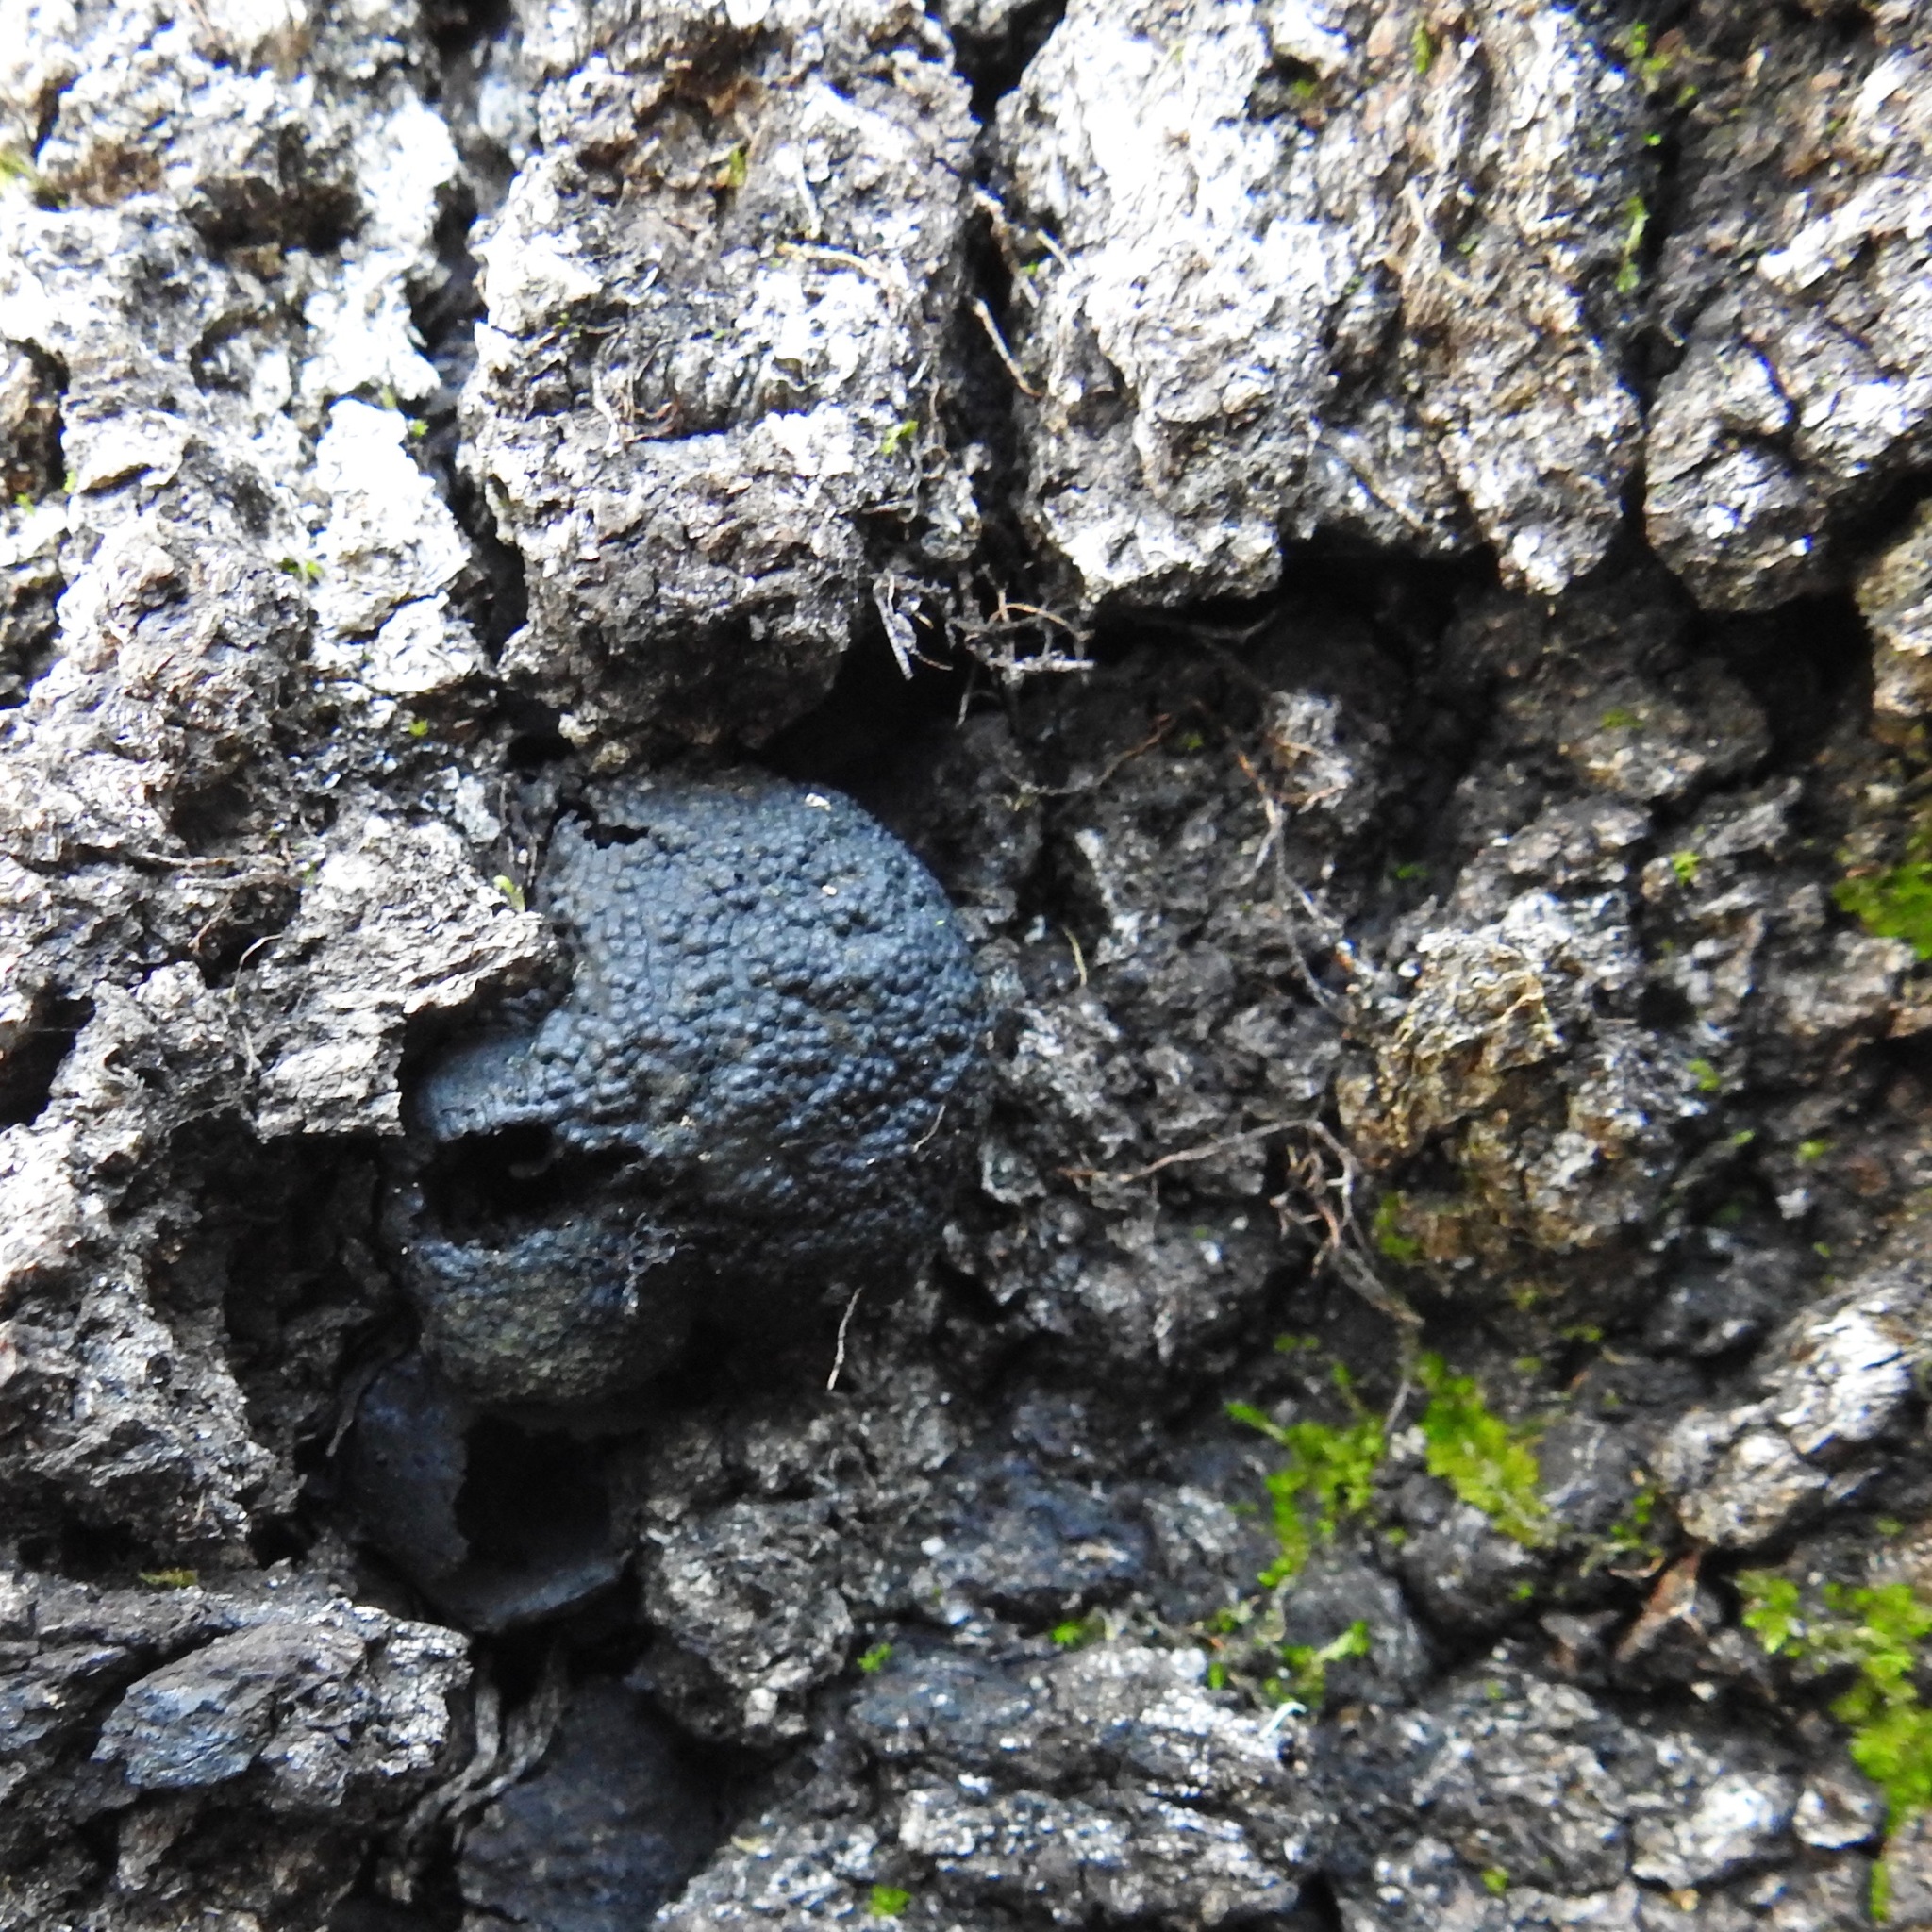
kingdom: Fungi
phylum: Ascomycota
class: Sordariomycetes
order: Xylariales
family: Hypoxylaceae
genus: Annulohypoxylon
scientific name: Annulohypoxylon thouarsianum
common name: Cramp balls
